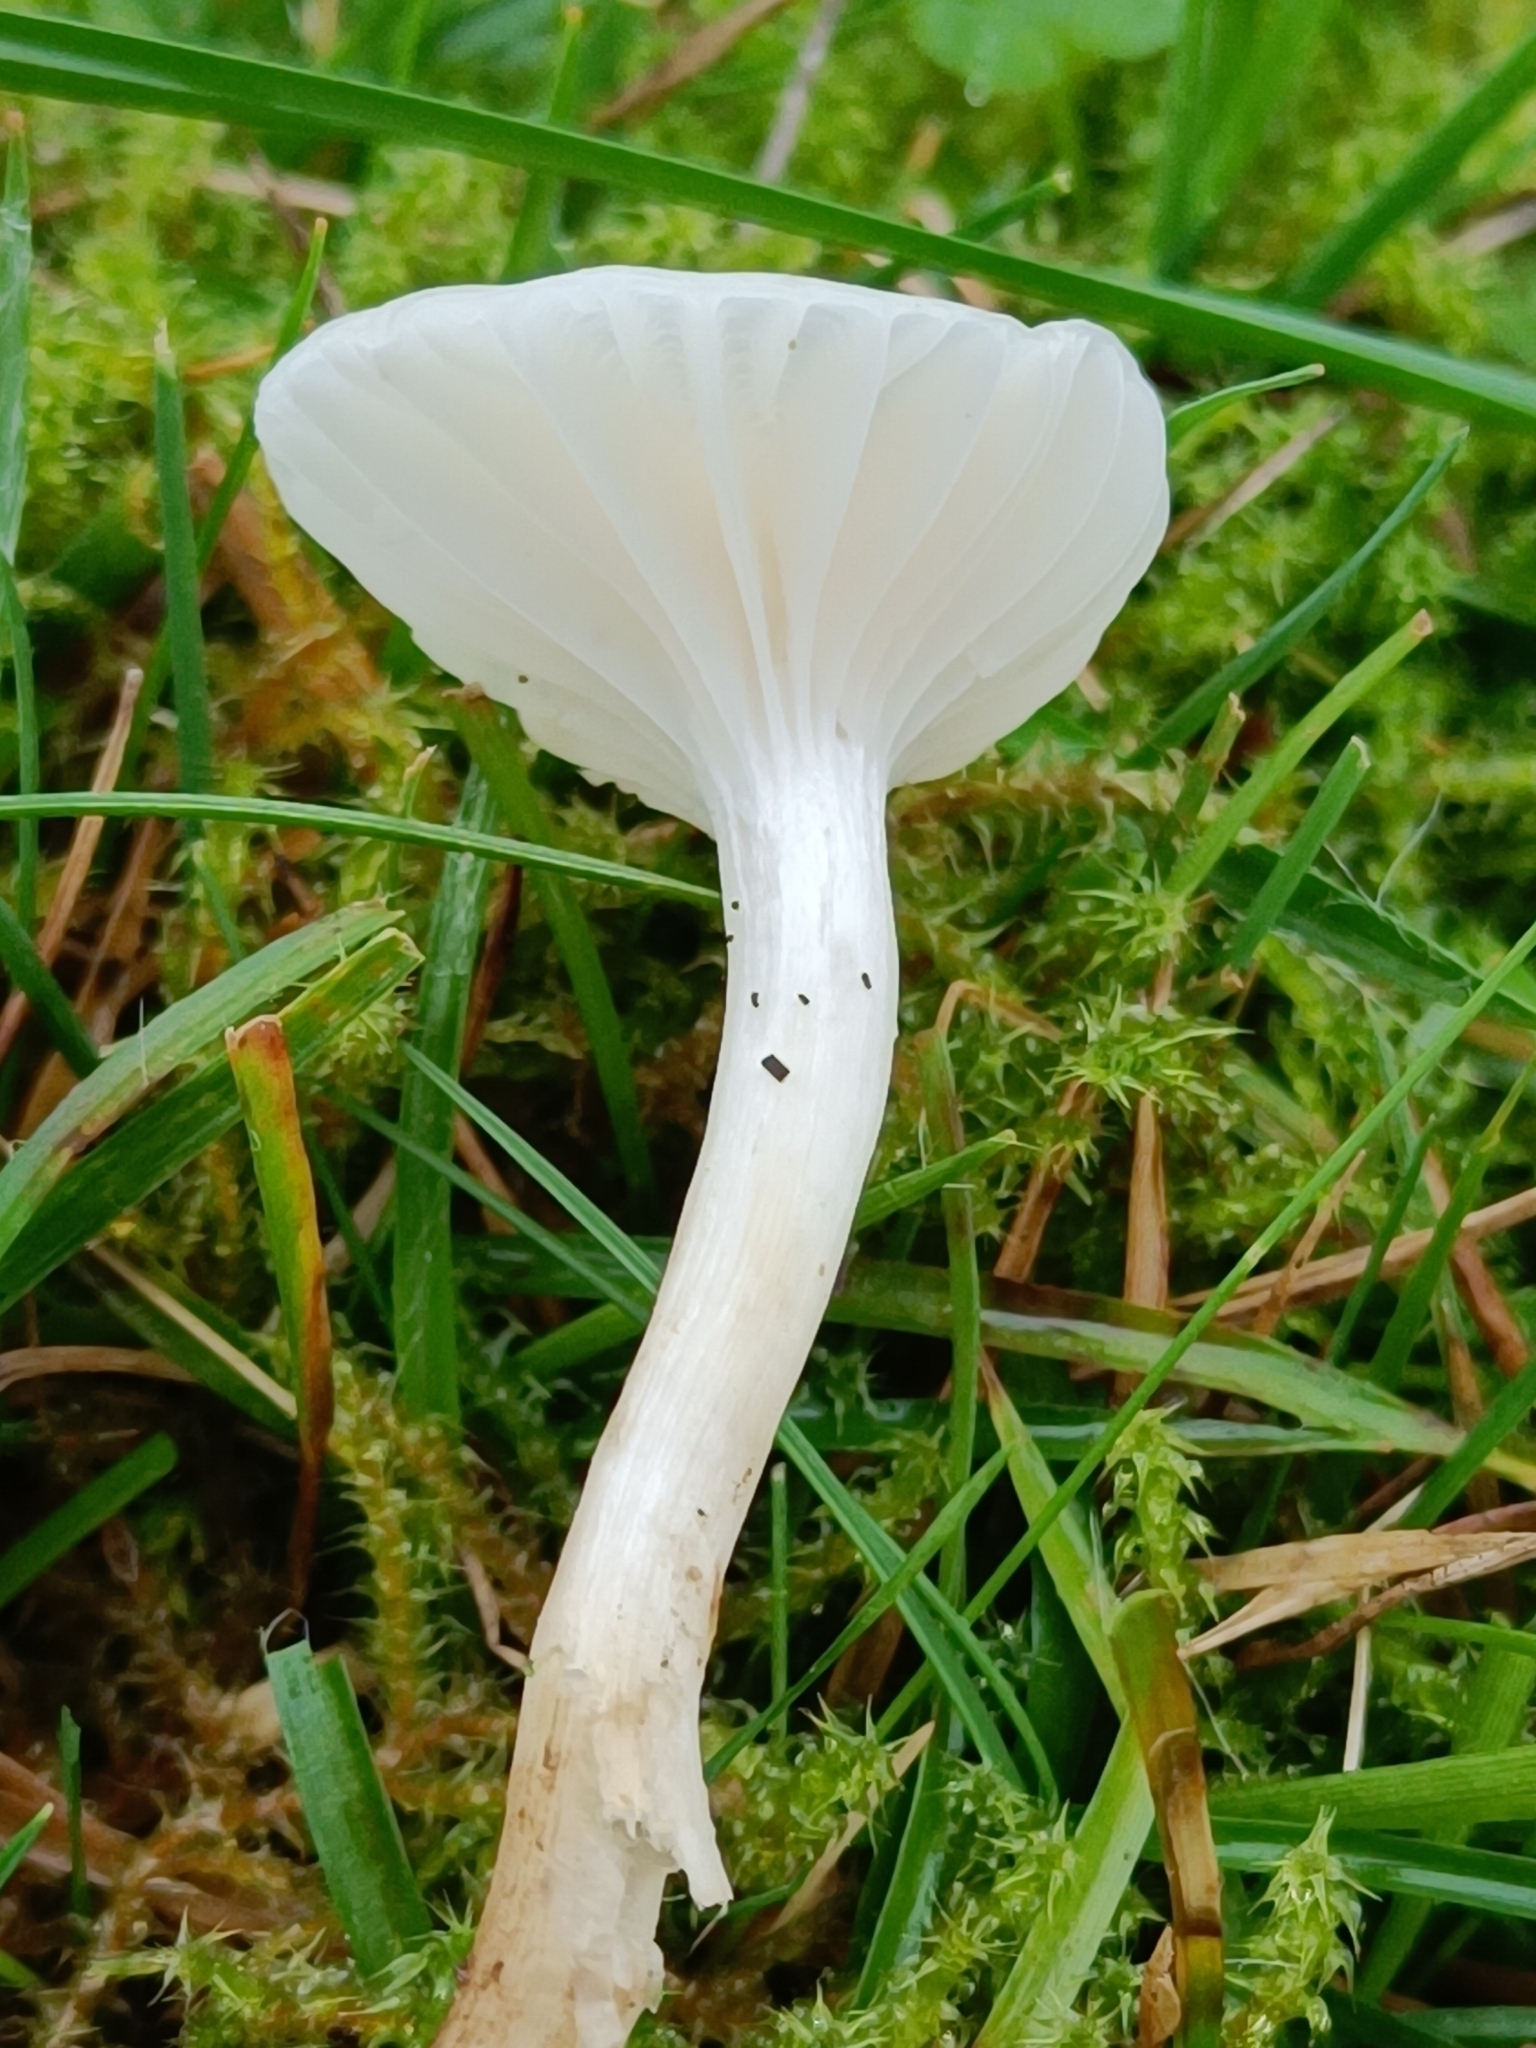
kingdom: Fungi
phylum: Basidiomycota
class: Agaricomycetes
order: Agaricales
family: Hygrophoraceae
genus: Cuphophyllus
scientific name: Cuphophyllus virgineus
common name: Snowy waxcap
